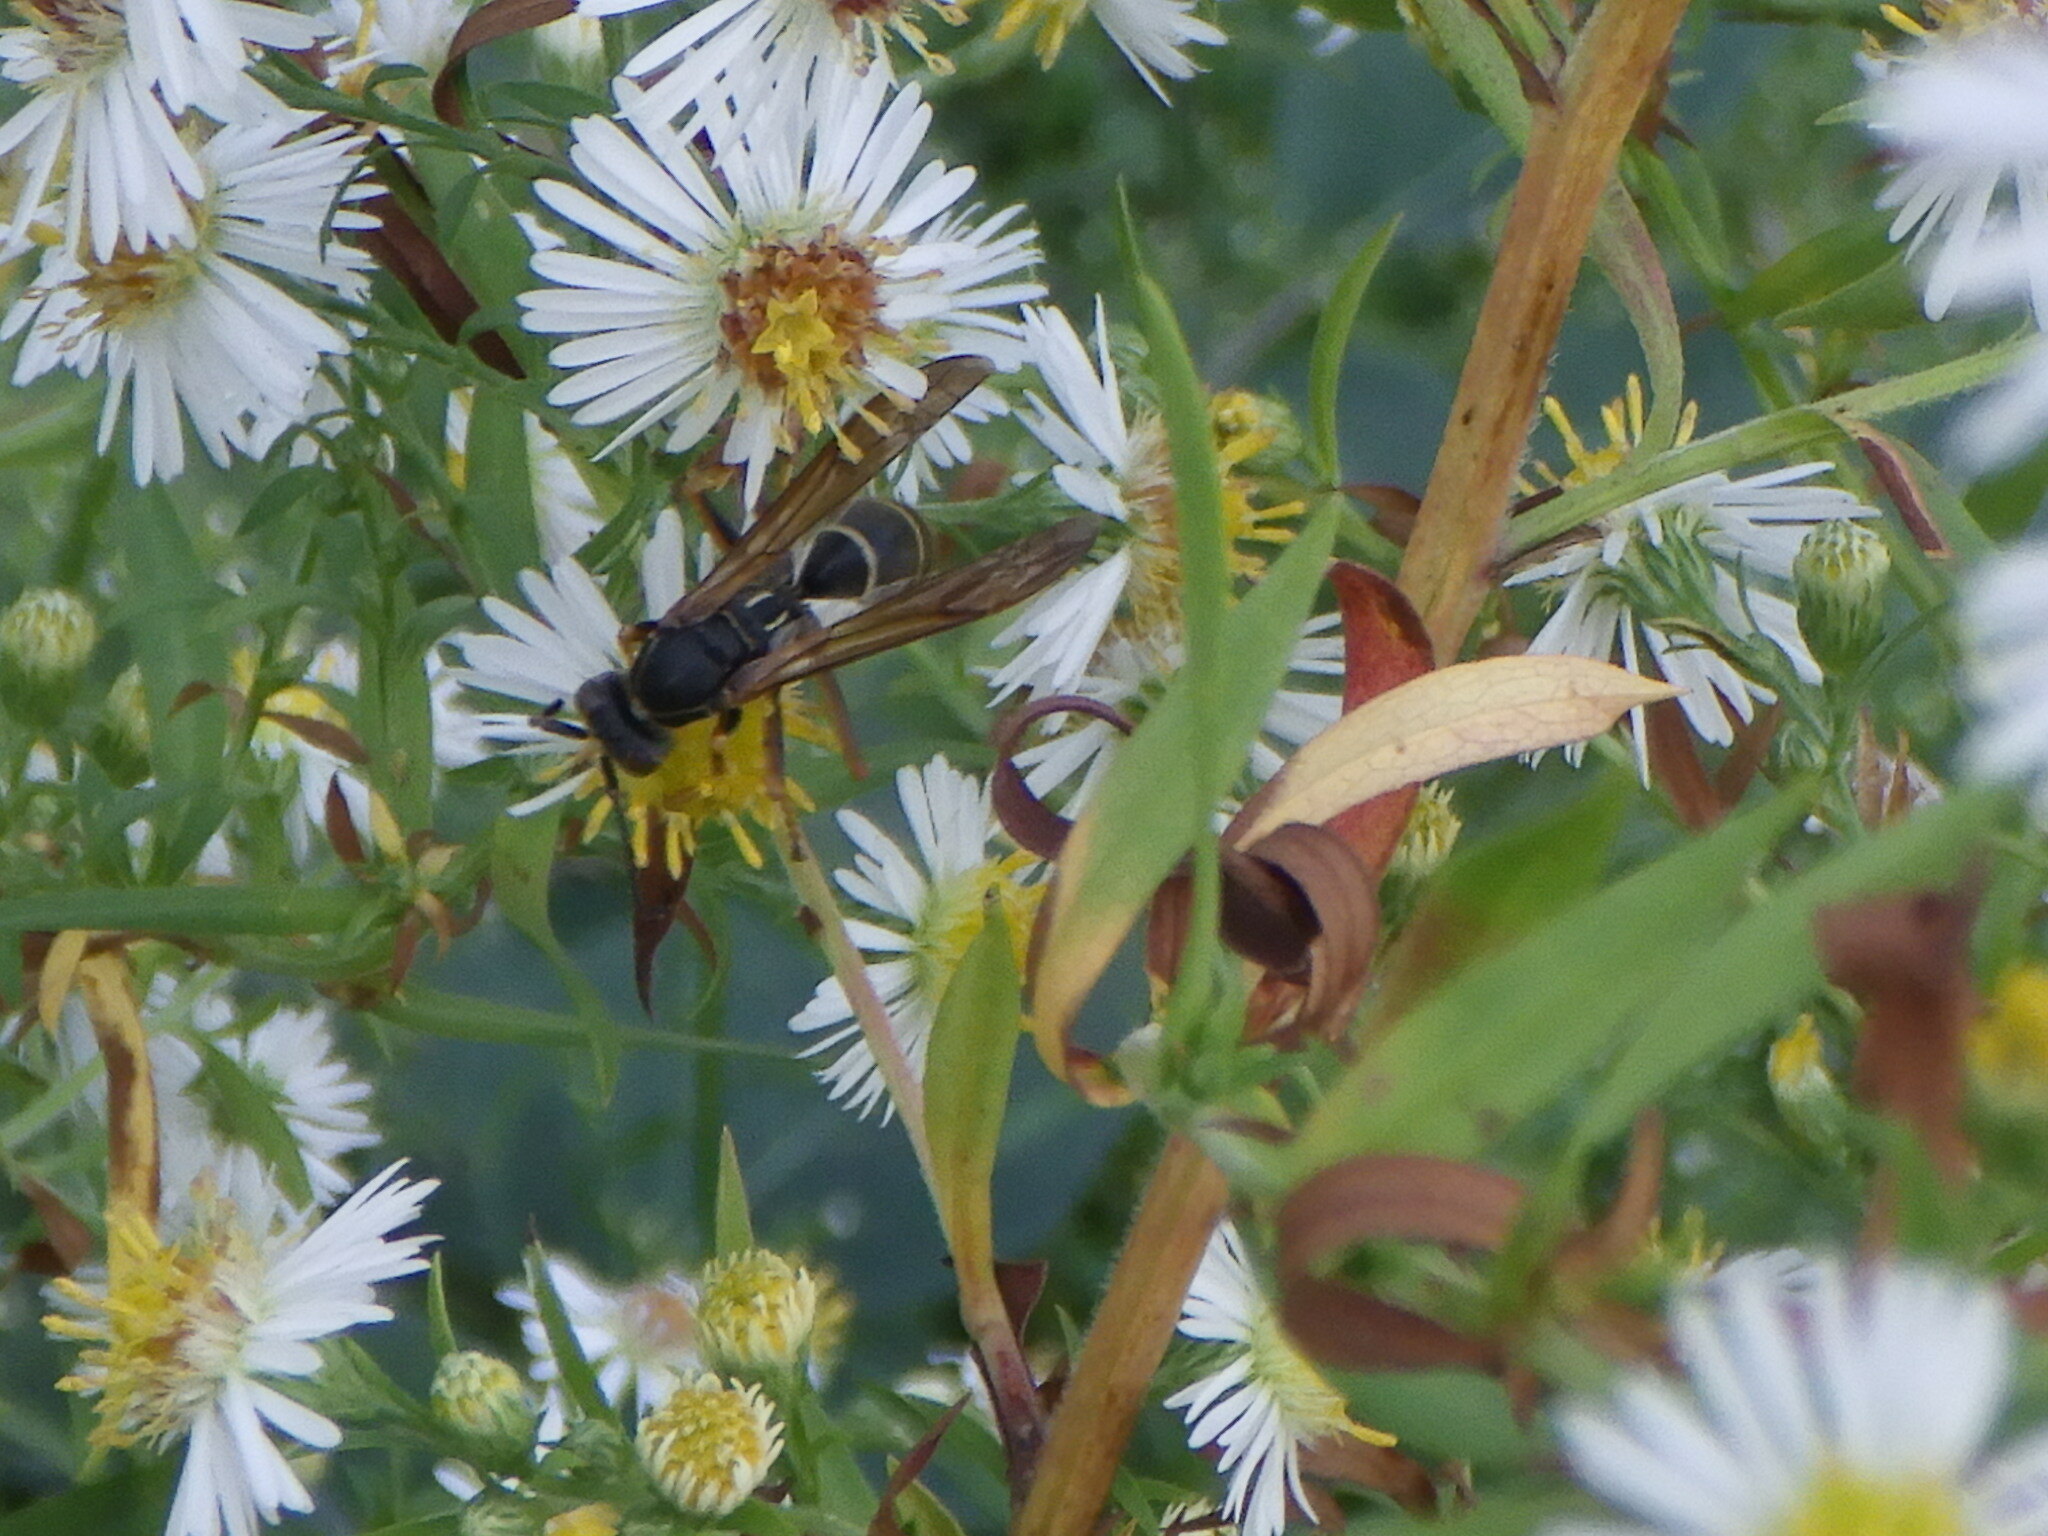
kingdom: Animalia
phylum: Arthropoda
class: Insecta
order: Hymenoptera
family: Eumenidae
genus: Polistes
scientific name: Polistes fuscatus
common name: Dark paper wasp
